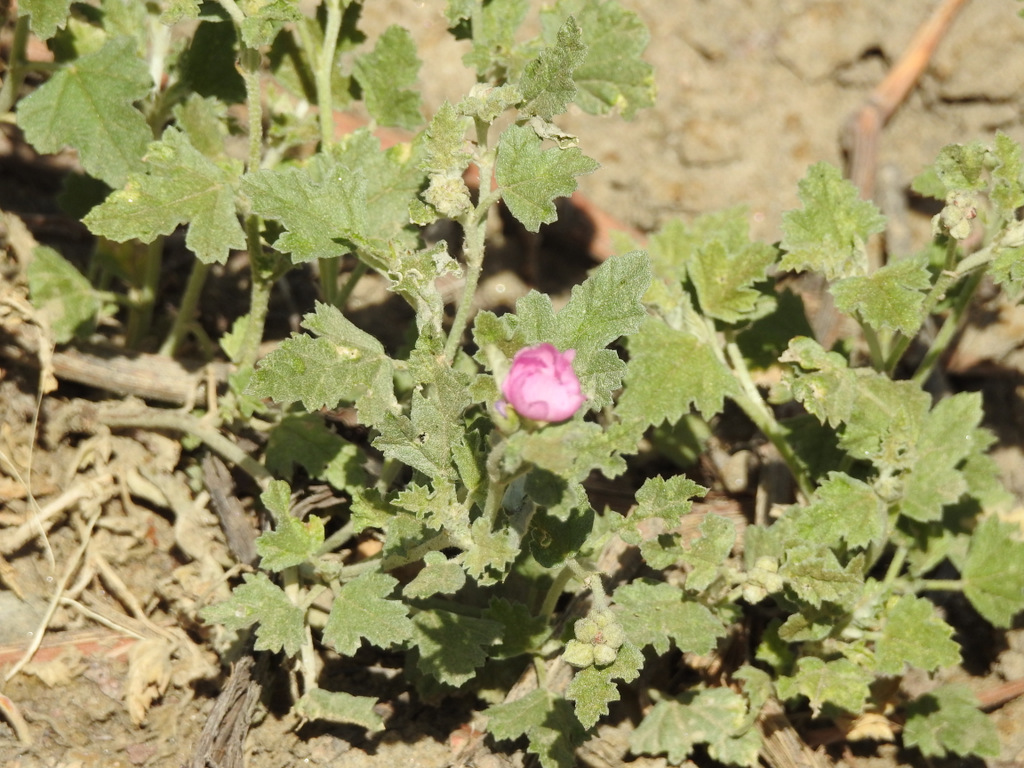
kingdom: Plantae
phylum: Tracheophyta
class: Magnoliopsida
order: Malvales
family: Malvaceae
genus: Sphaeralcea
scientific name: Sphaeralcea mendocina
